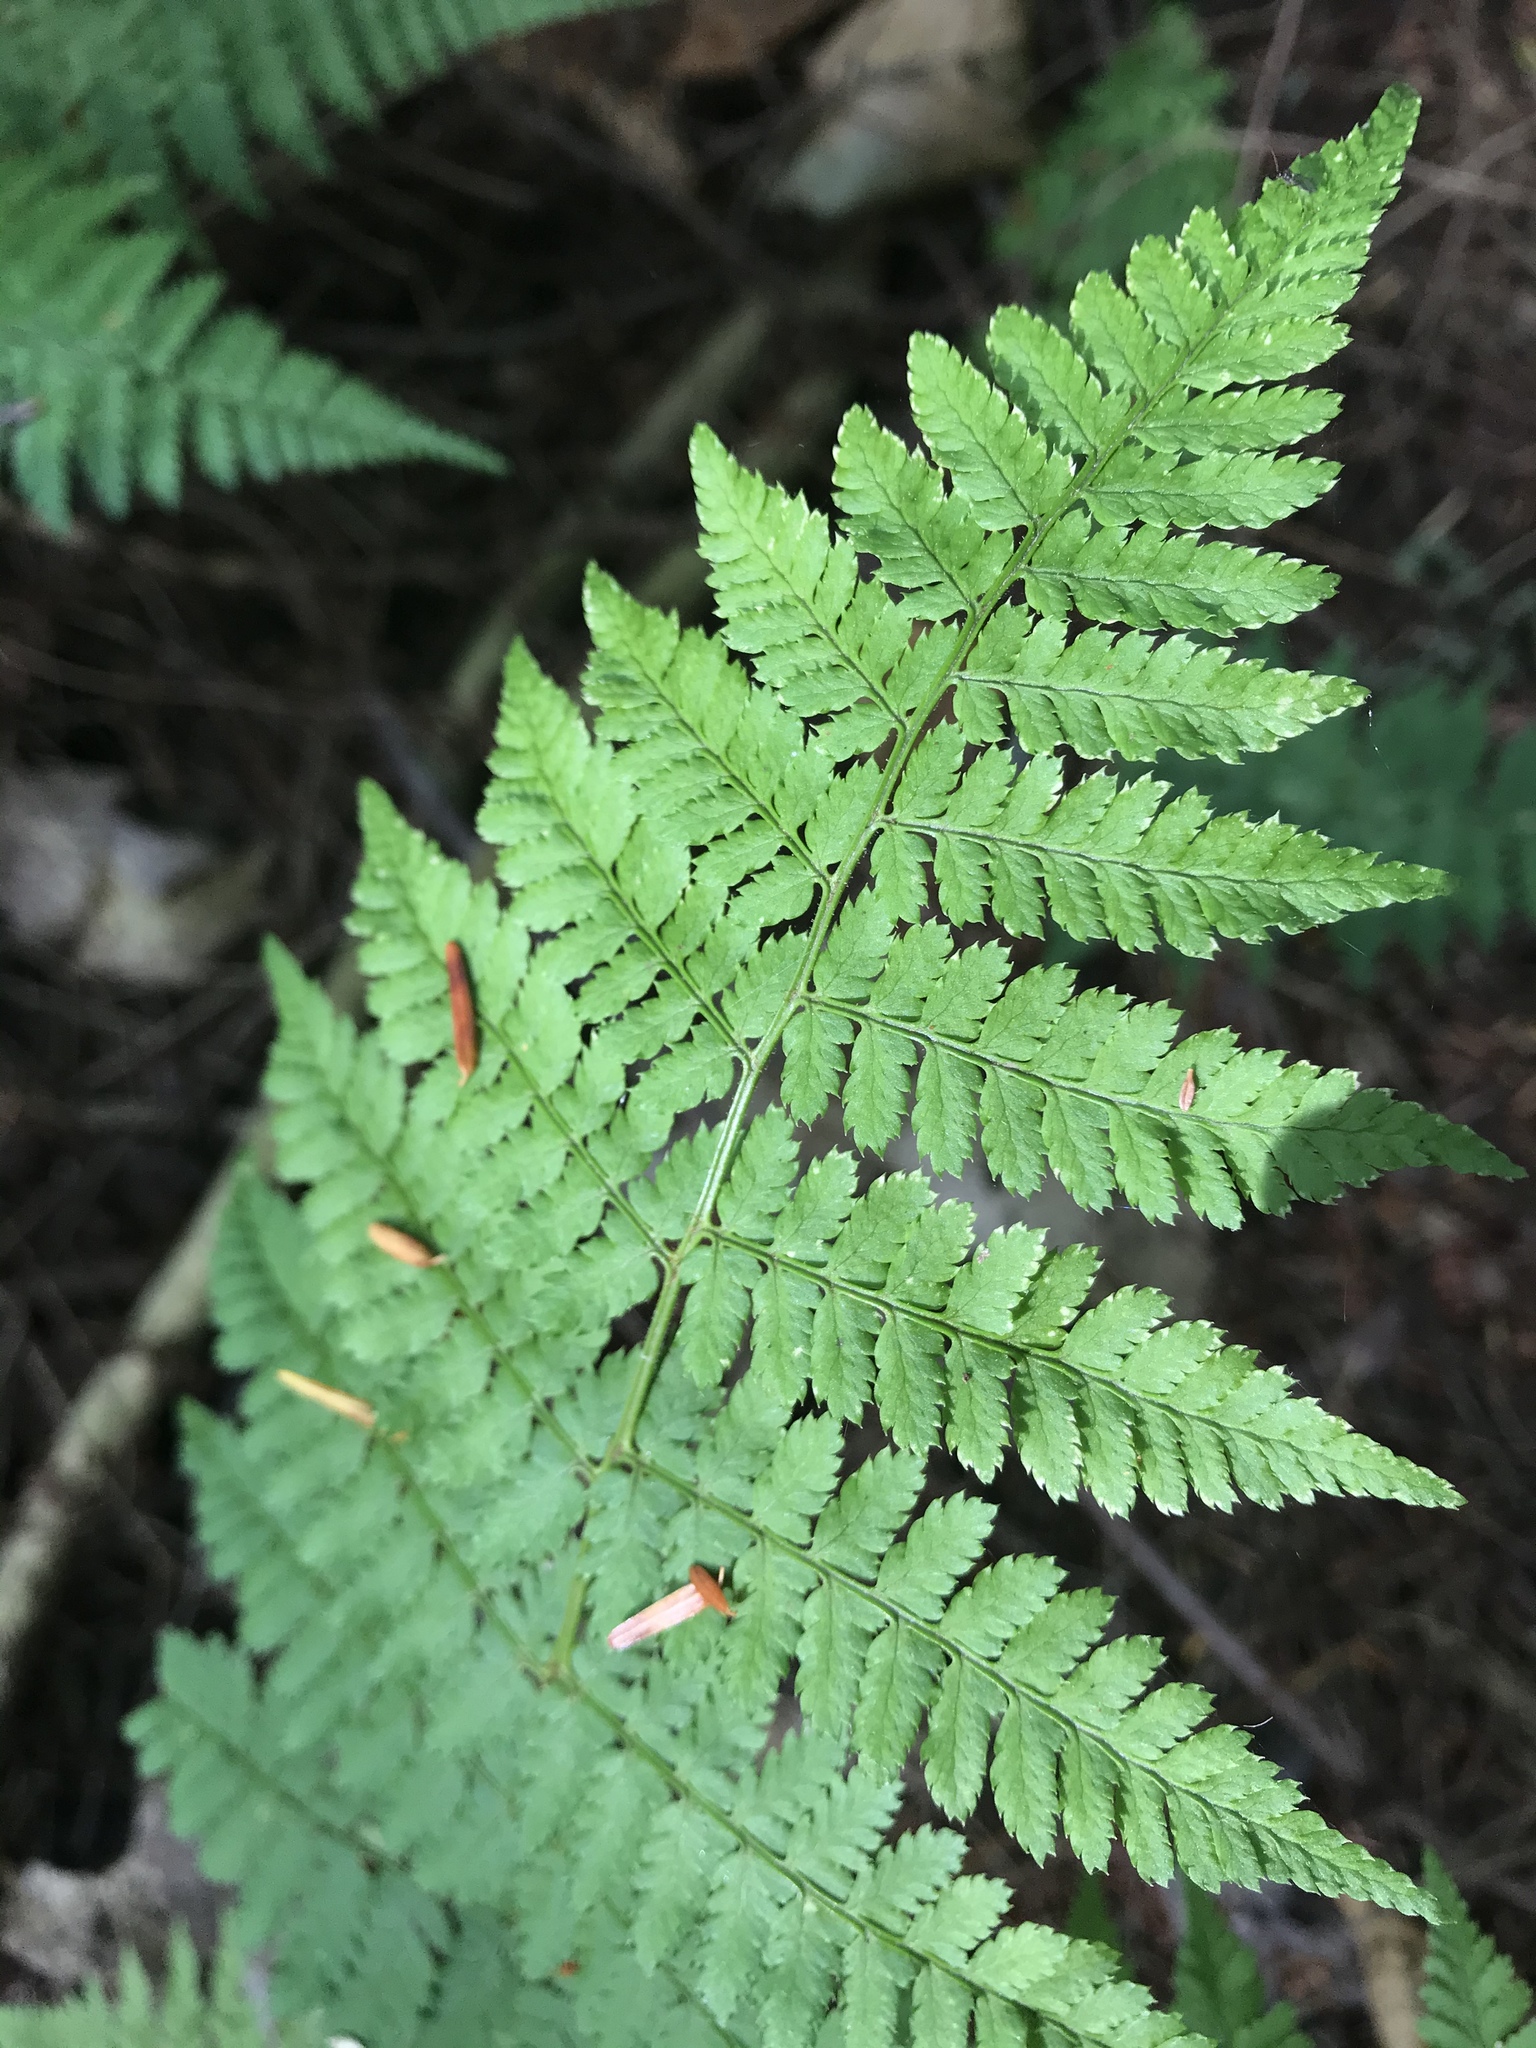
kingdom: Plantae
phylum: Tracheophyta
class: Polypodiopsida
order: Polypodiales
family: Dryopteridaceae
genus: Dryopteris
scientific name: Dryopteris intermedia
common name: Evergreen wood fern
